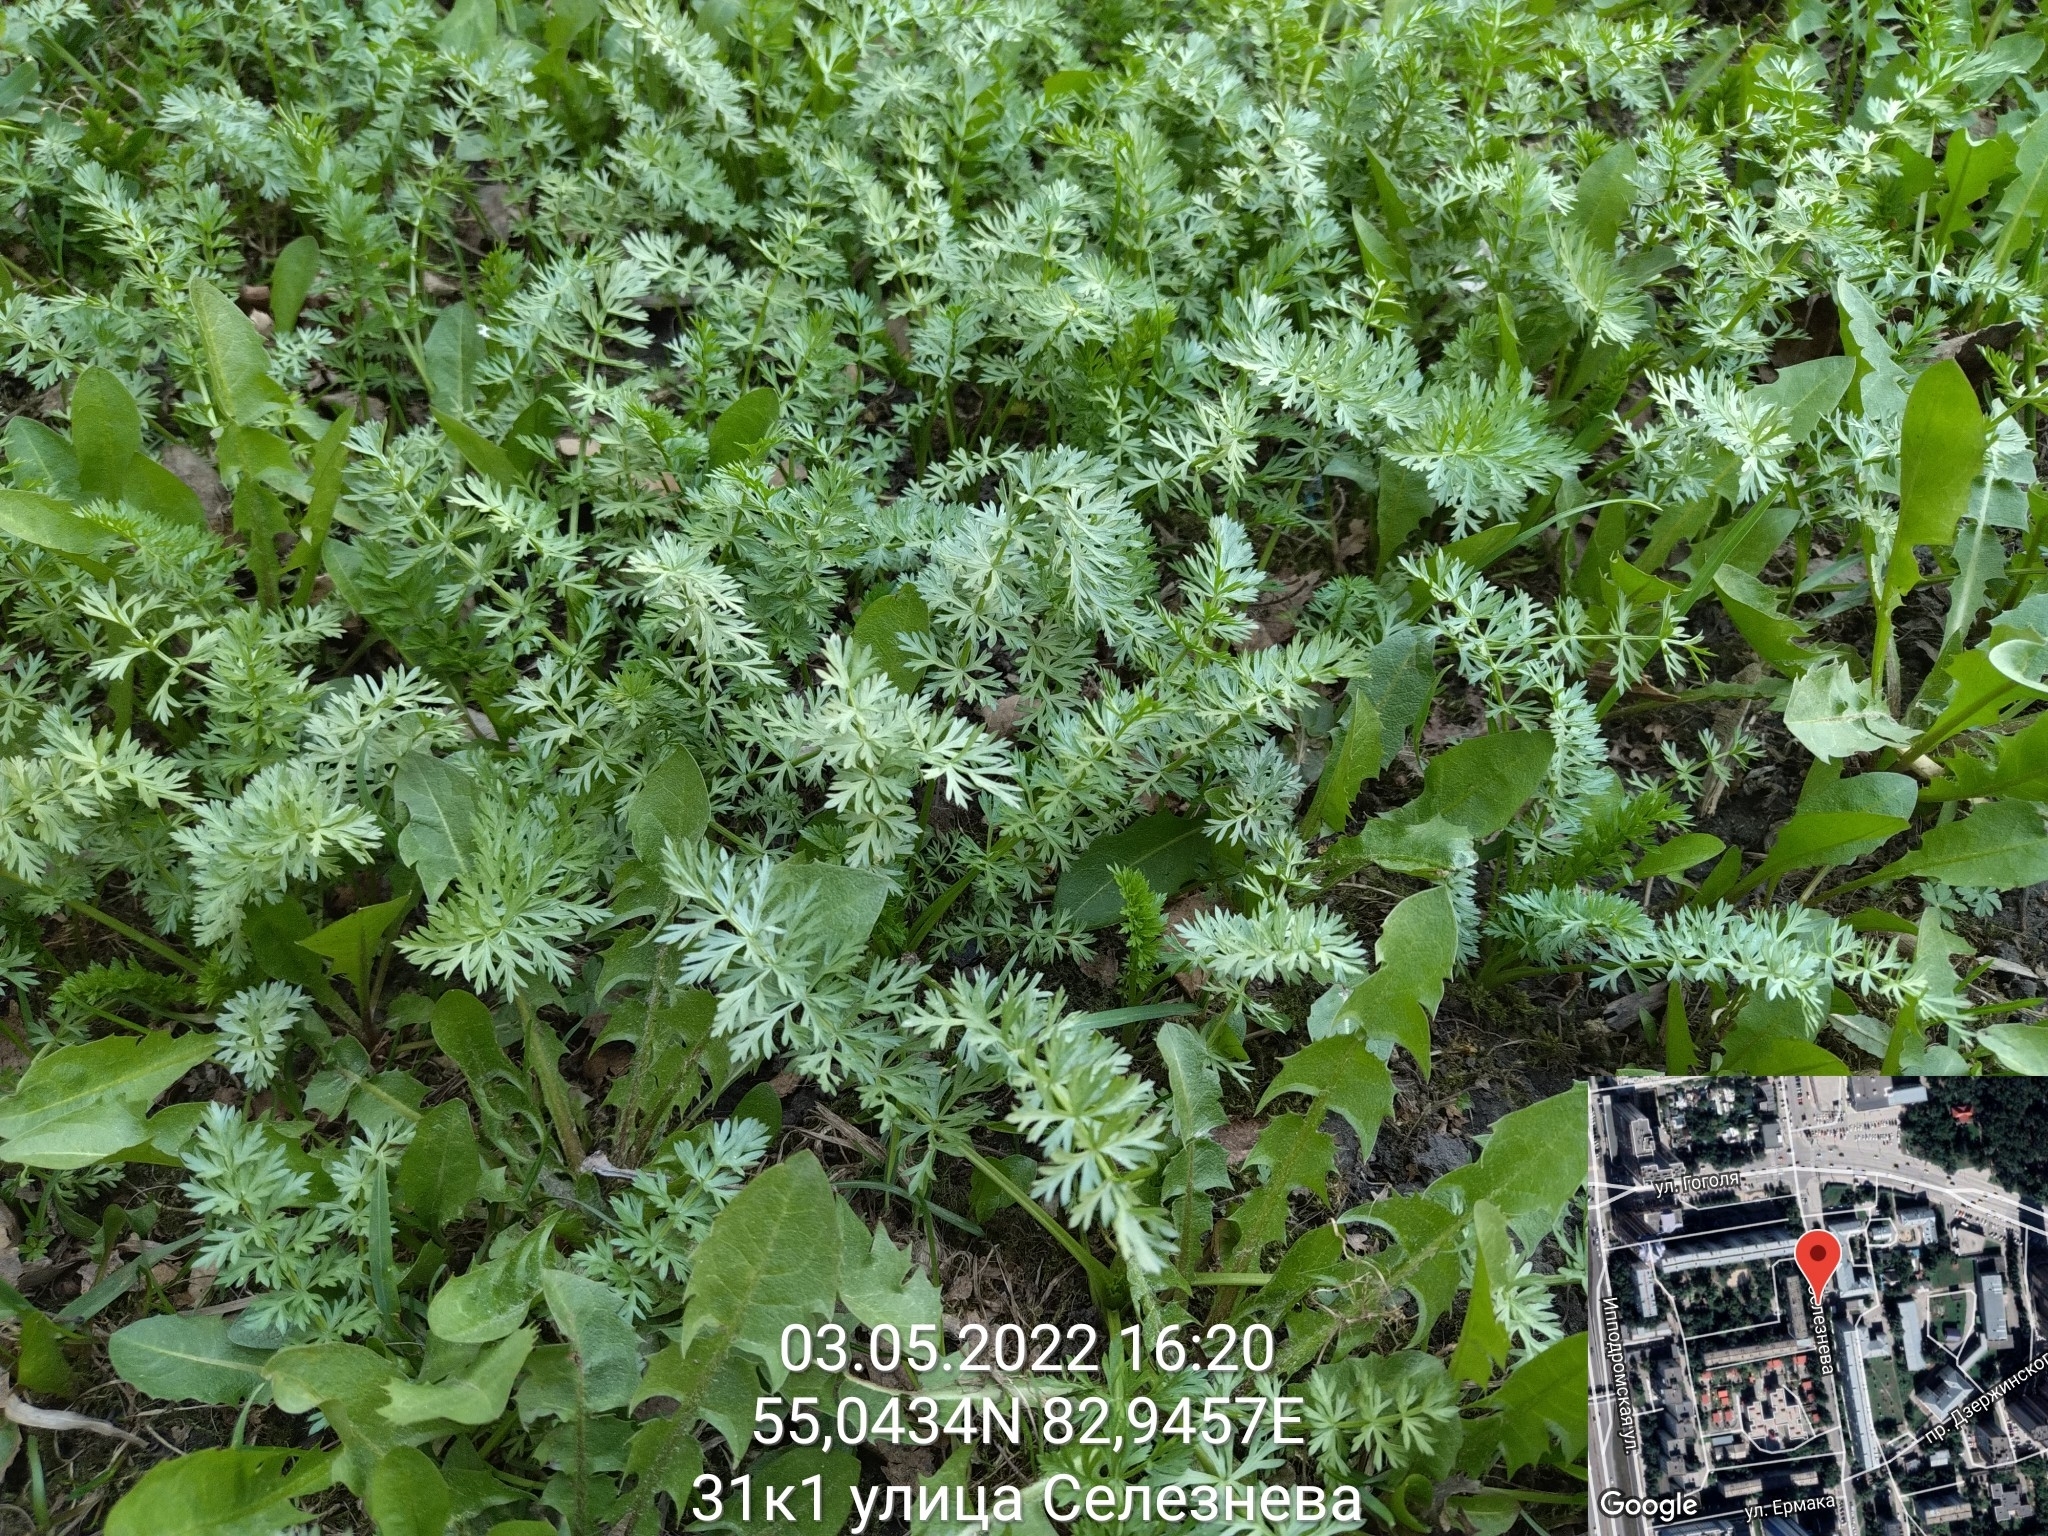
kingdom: Plantae
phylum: Tracheophyta
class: Magnoliopsida
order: Apiales
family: Apiaceae
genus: Carum
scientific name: Carum carvi
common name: Caraway
